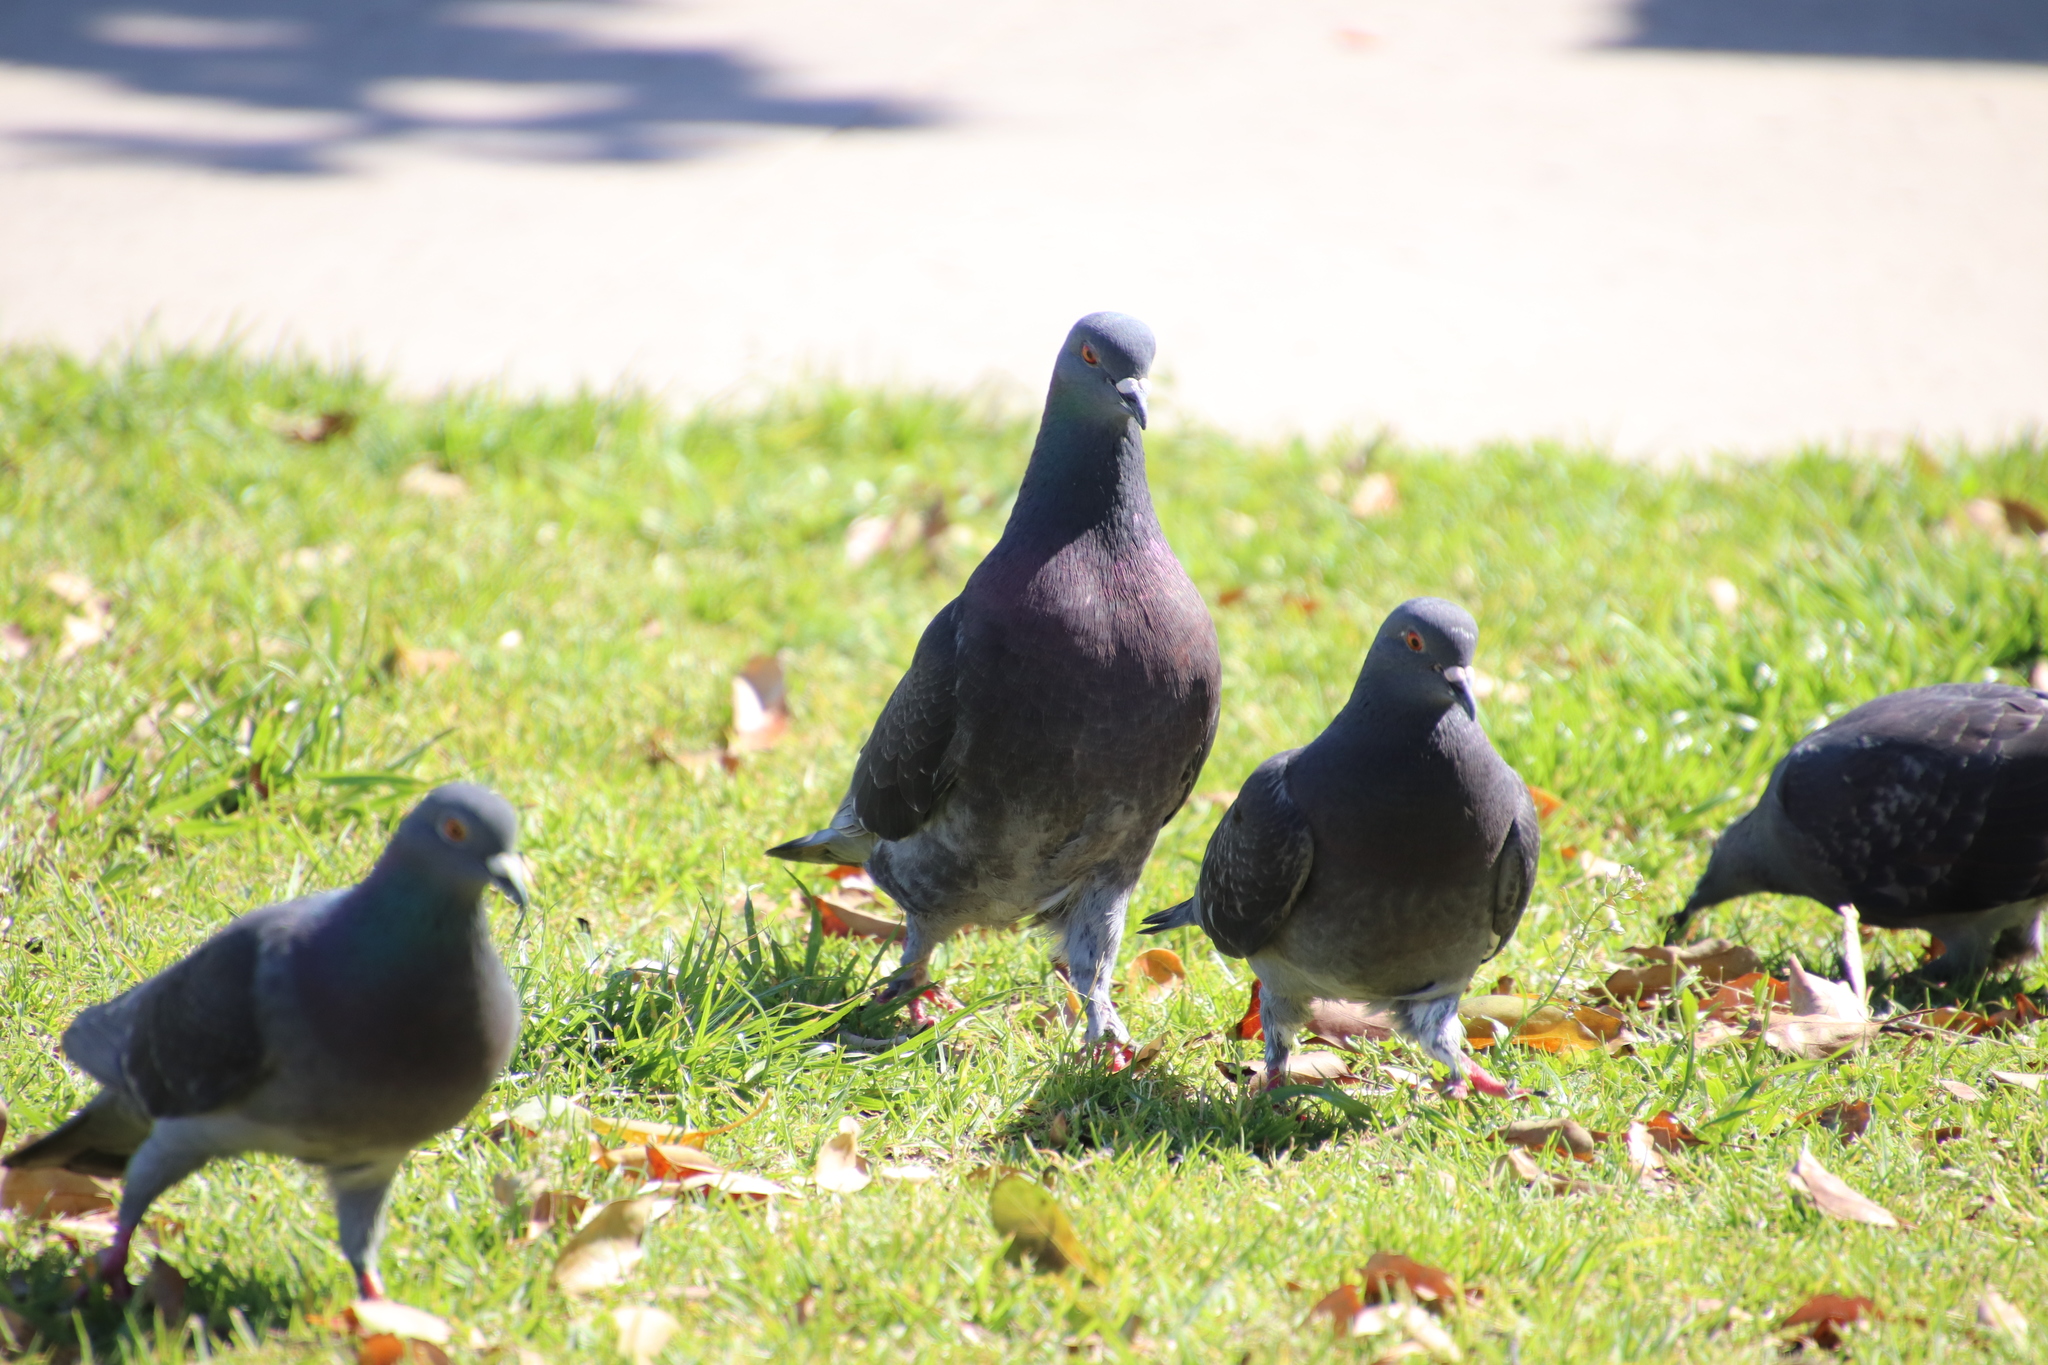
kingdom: Animalia
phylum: Chordata
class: Aves
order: Columbiformes
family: Columbidae
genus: Columba
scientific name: Columba livia
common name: Rock pigeon
